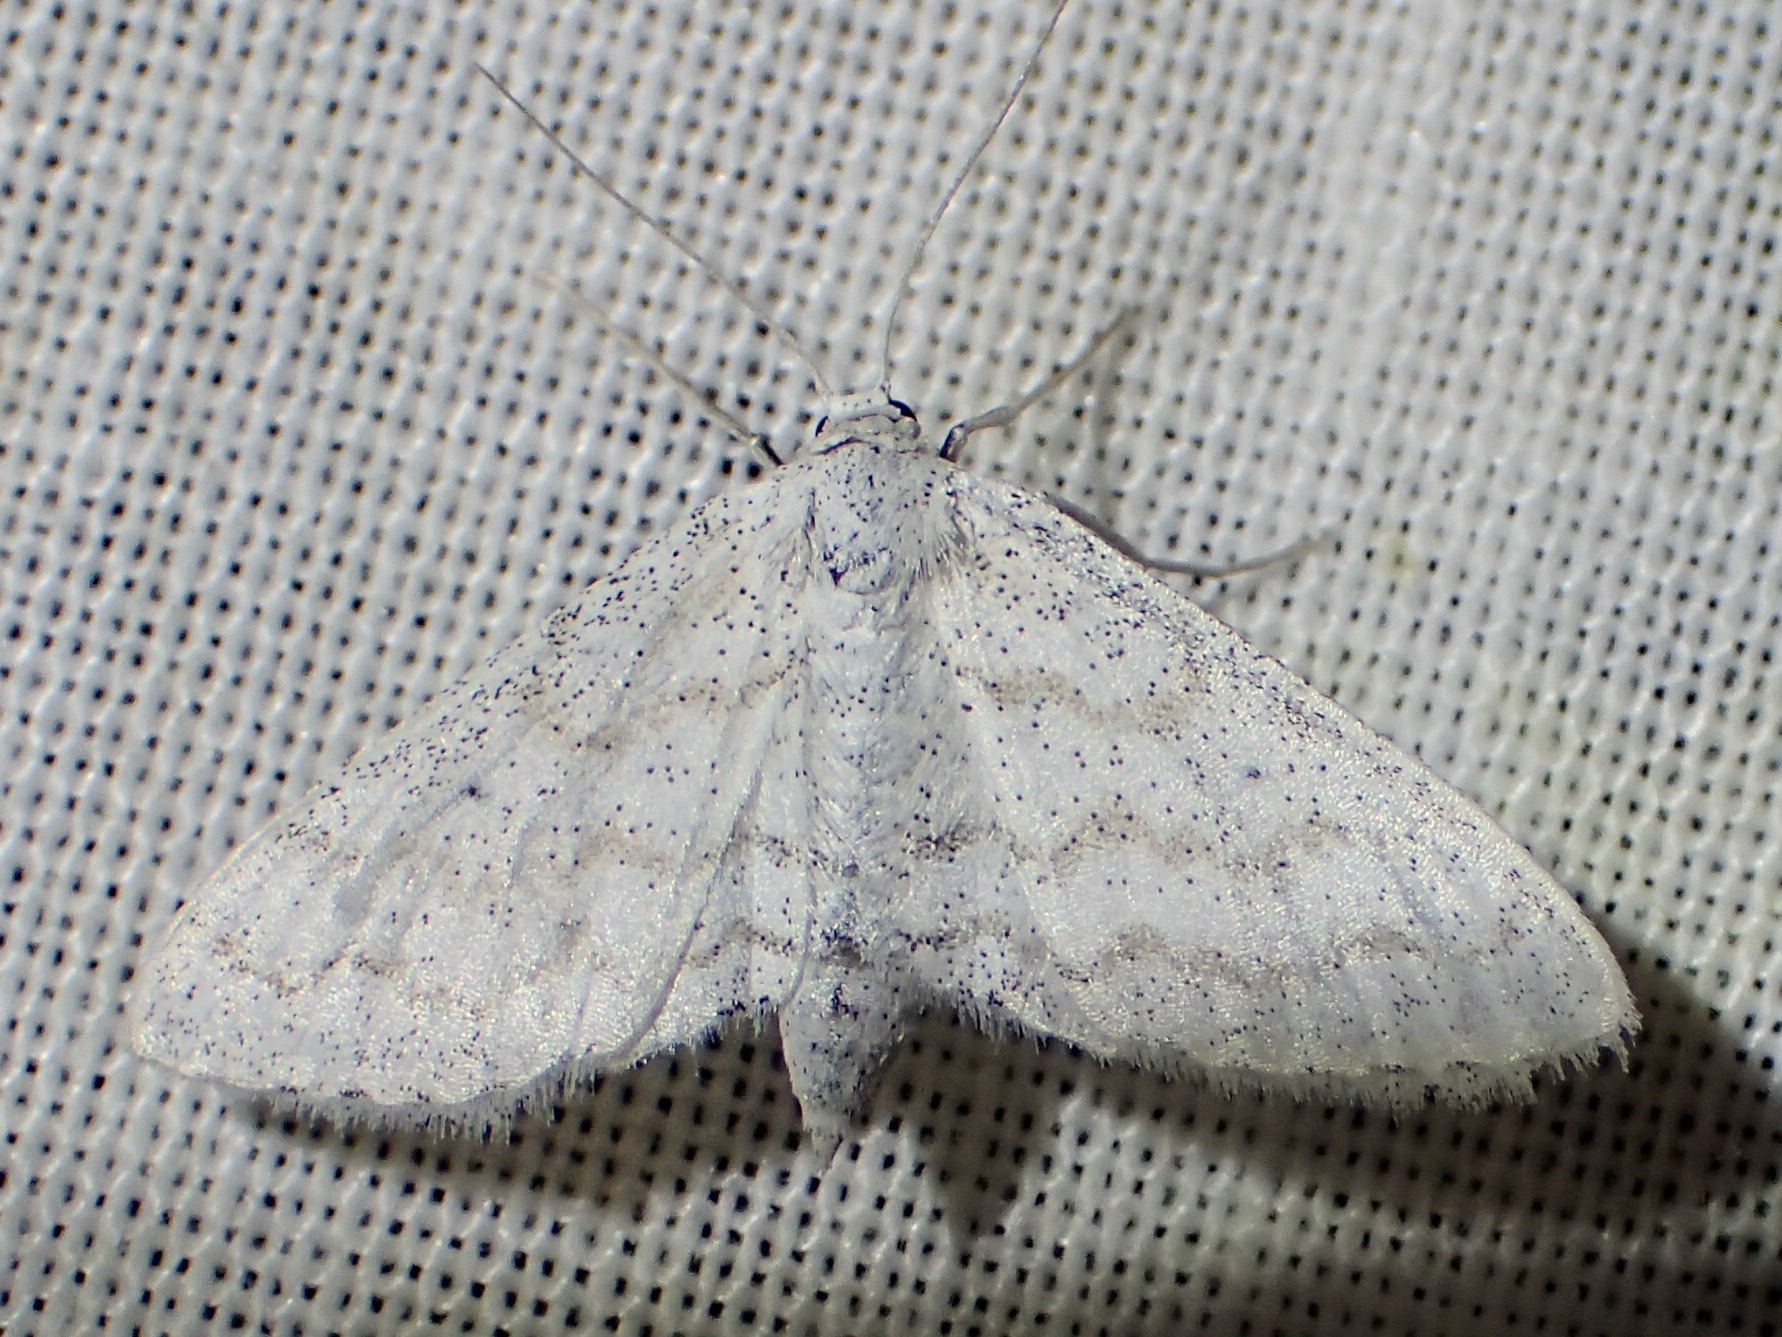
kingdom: Animalia
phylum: Arthropoda
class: Insecta
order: Lepidoptera
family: Geometridae
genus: Lobocleta
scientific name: Lobocleta peralbata
